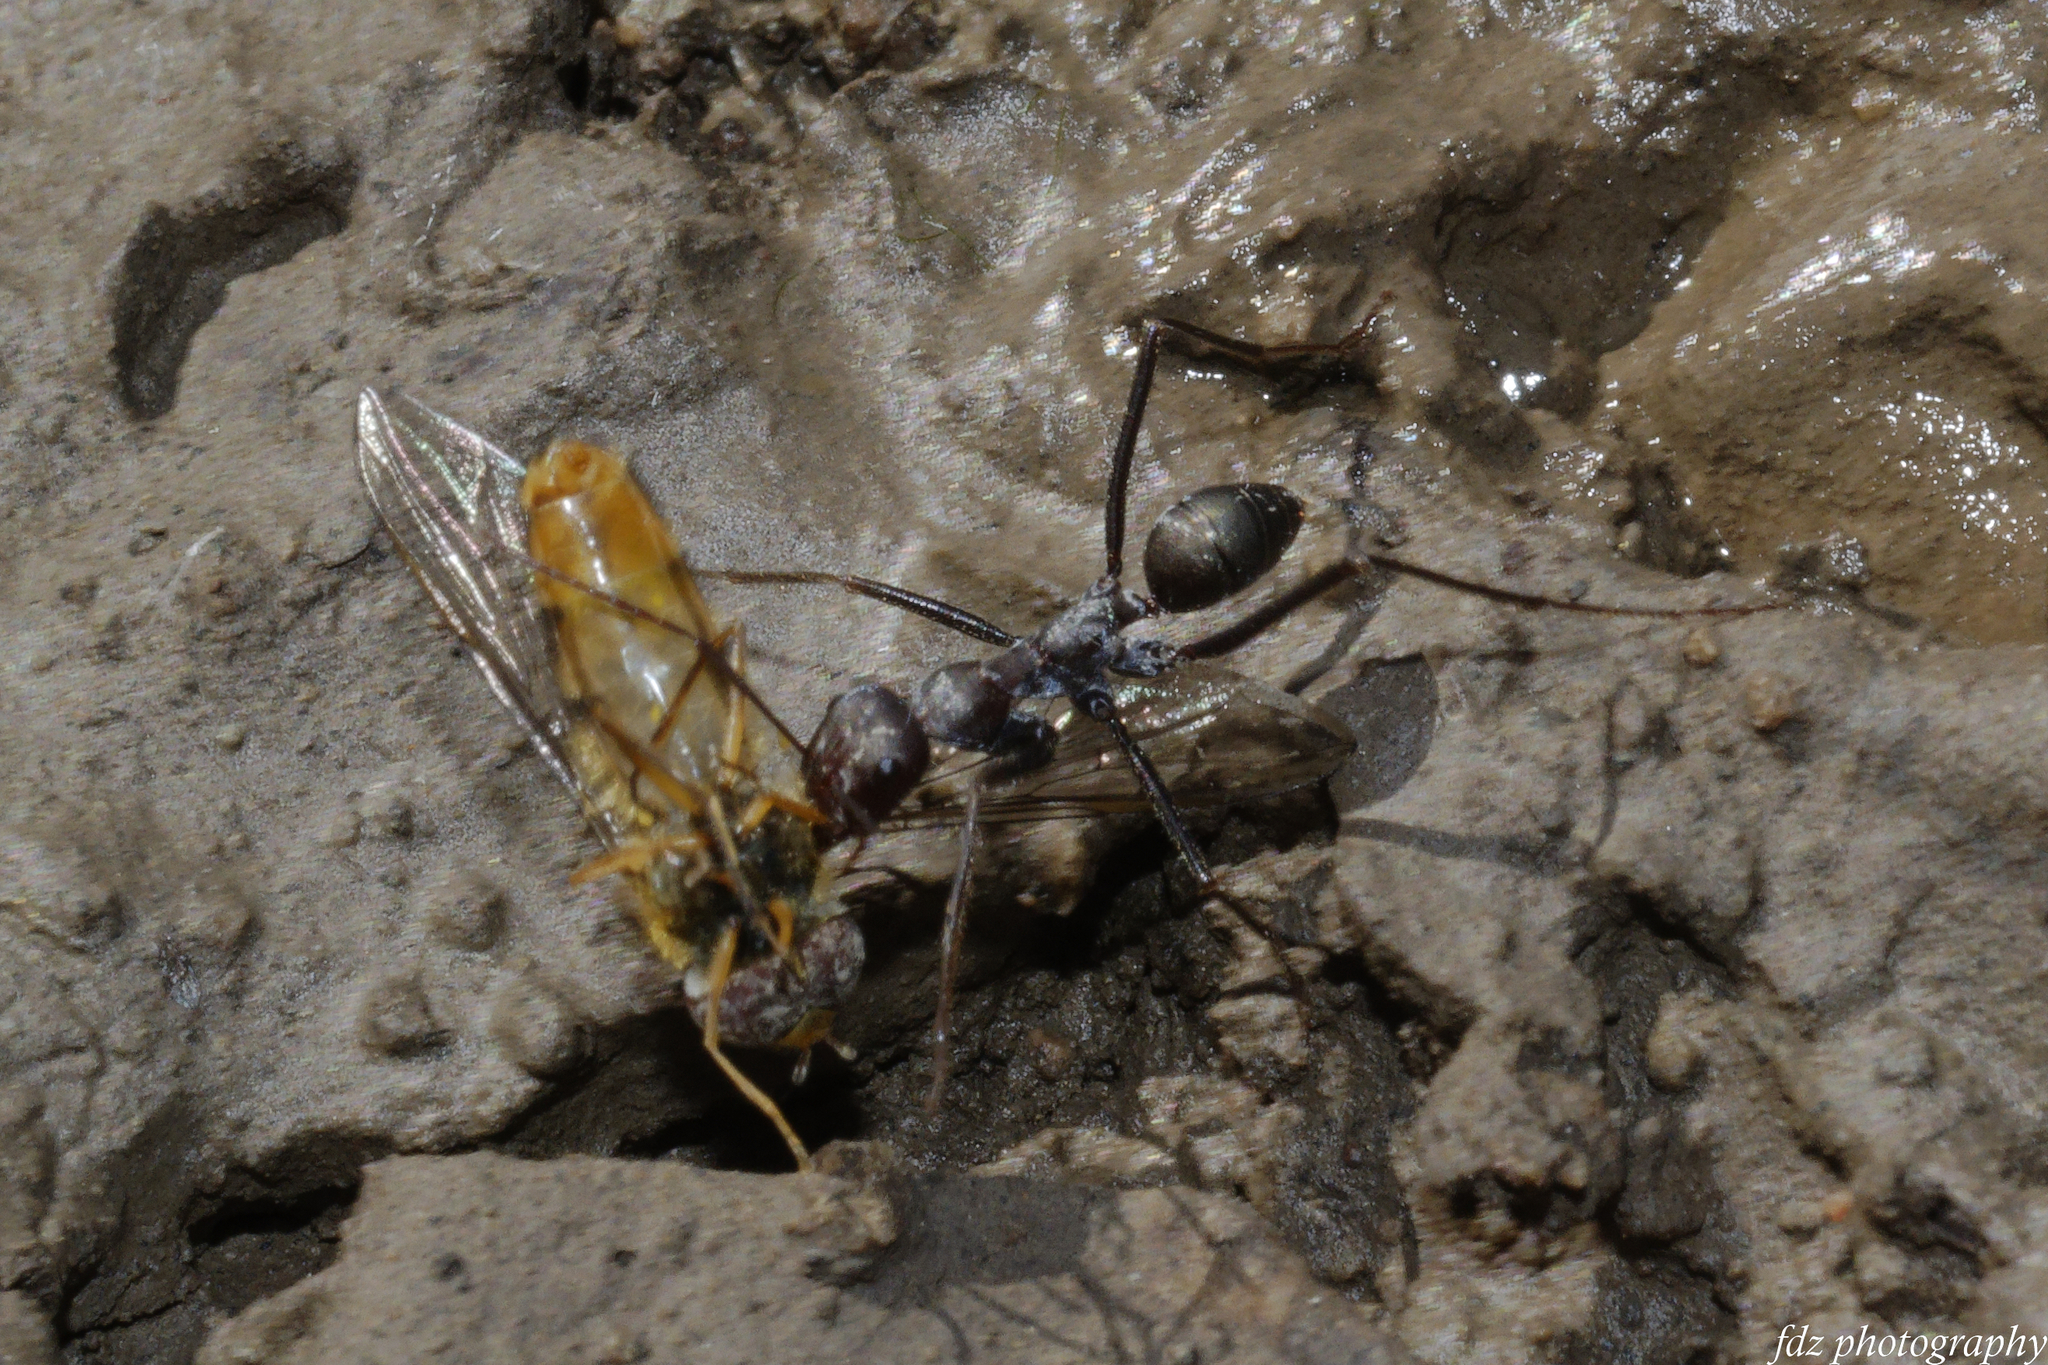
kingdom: Animalia
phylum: Arthropoda
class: Insecta
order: Hymenoptera
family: Formicidae
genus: Cataglyphis
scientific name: Cataglyphis hispanicus
